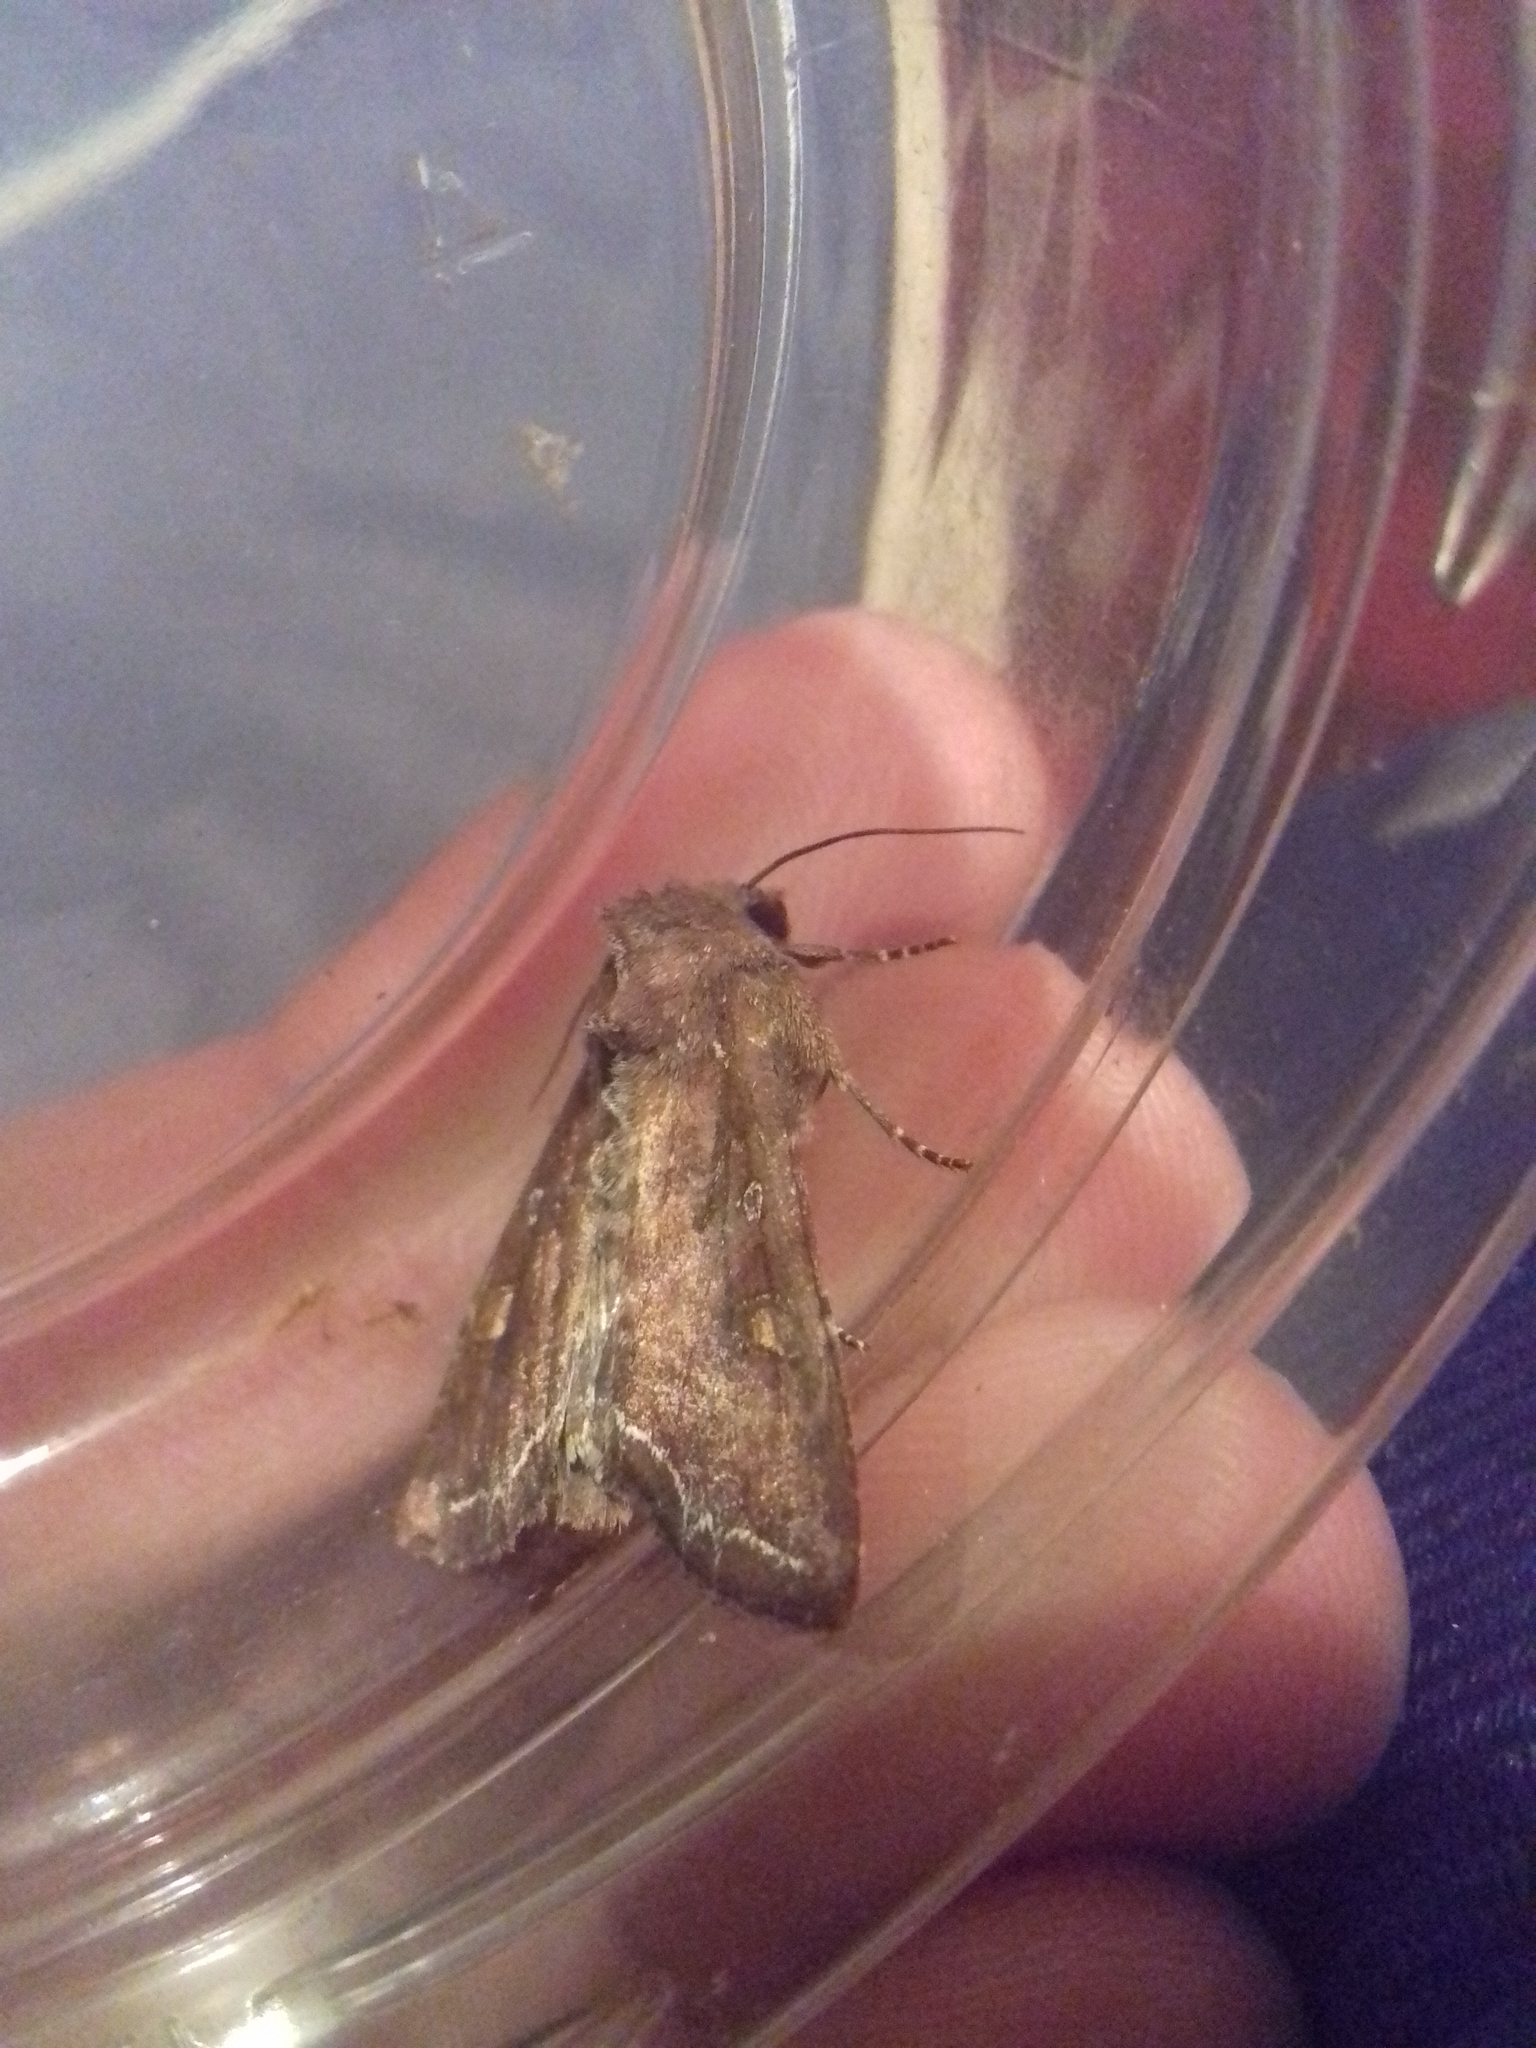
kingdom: Animalia
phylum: Arthropoda
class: Insecta
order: Lepidoptera
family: Noctuidae
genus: Lacanobia
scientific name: Lacanobia oleracea
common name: Bright-line brown-eye
